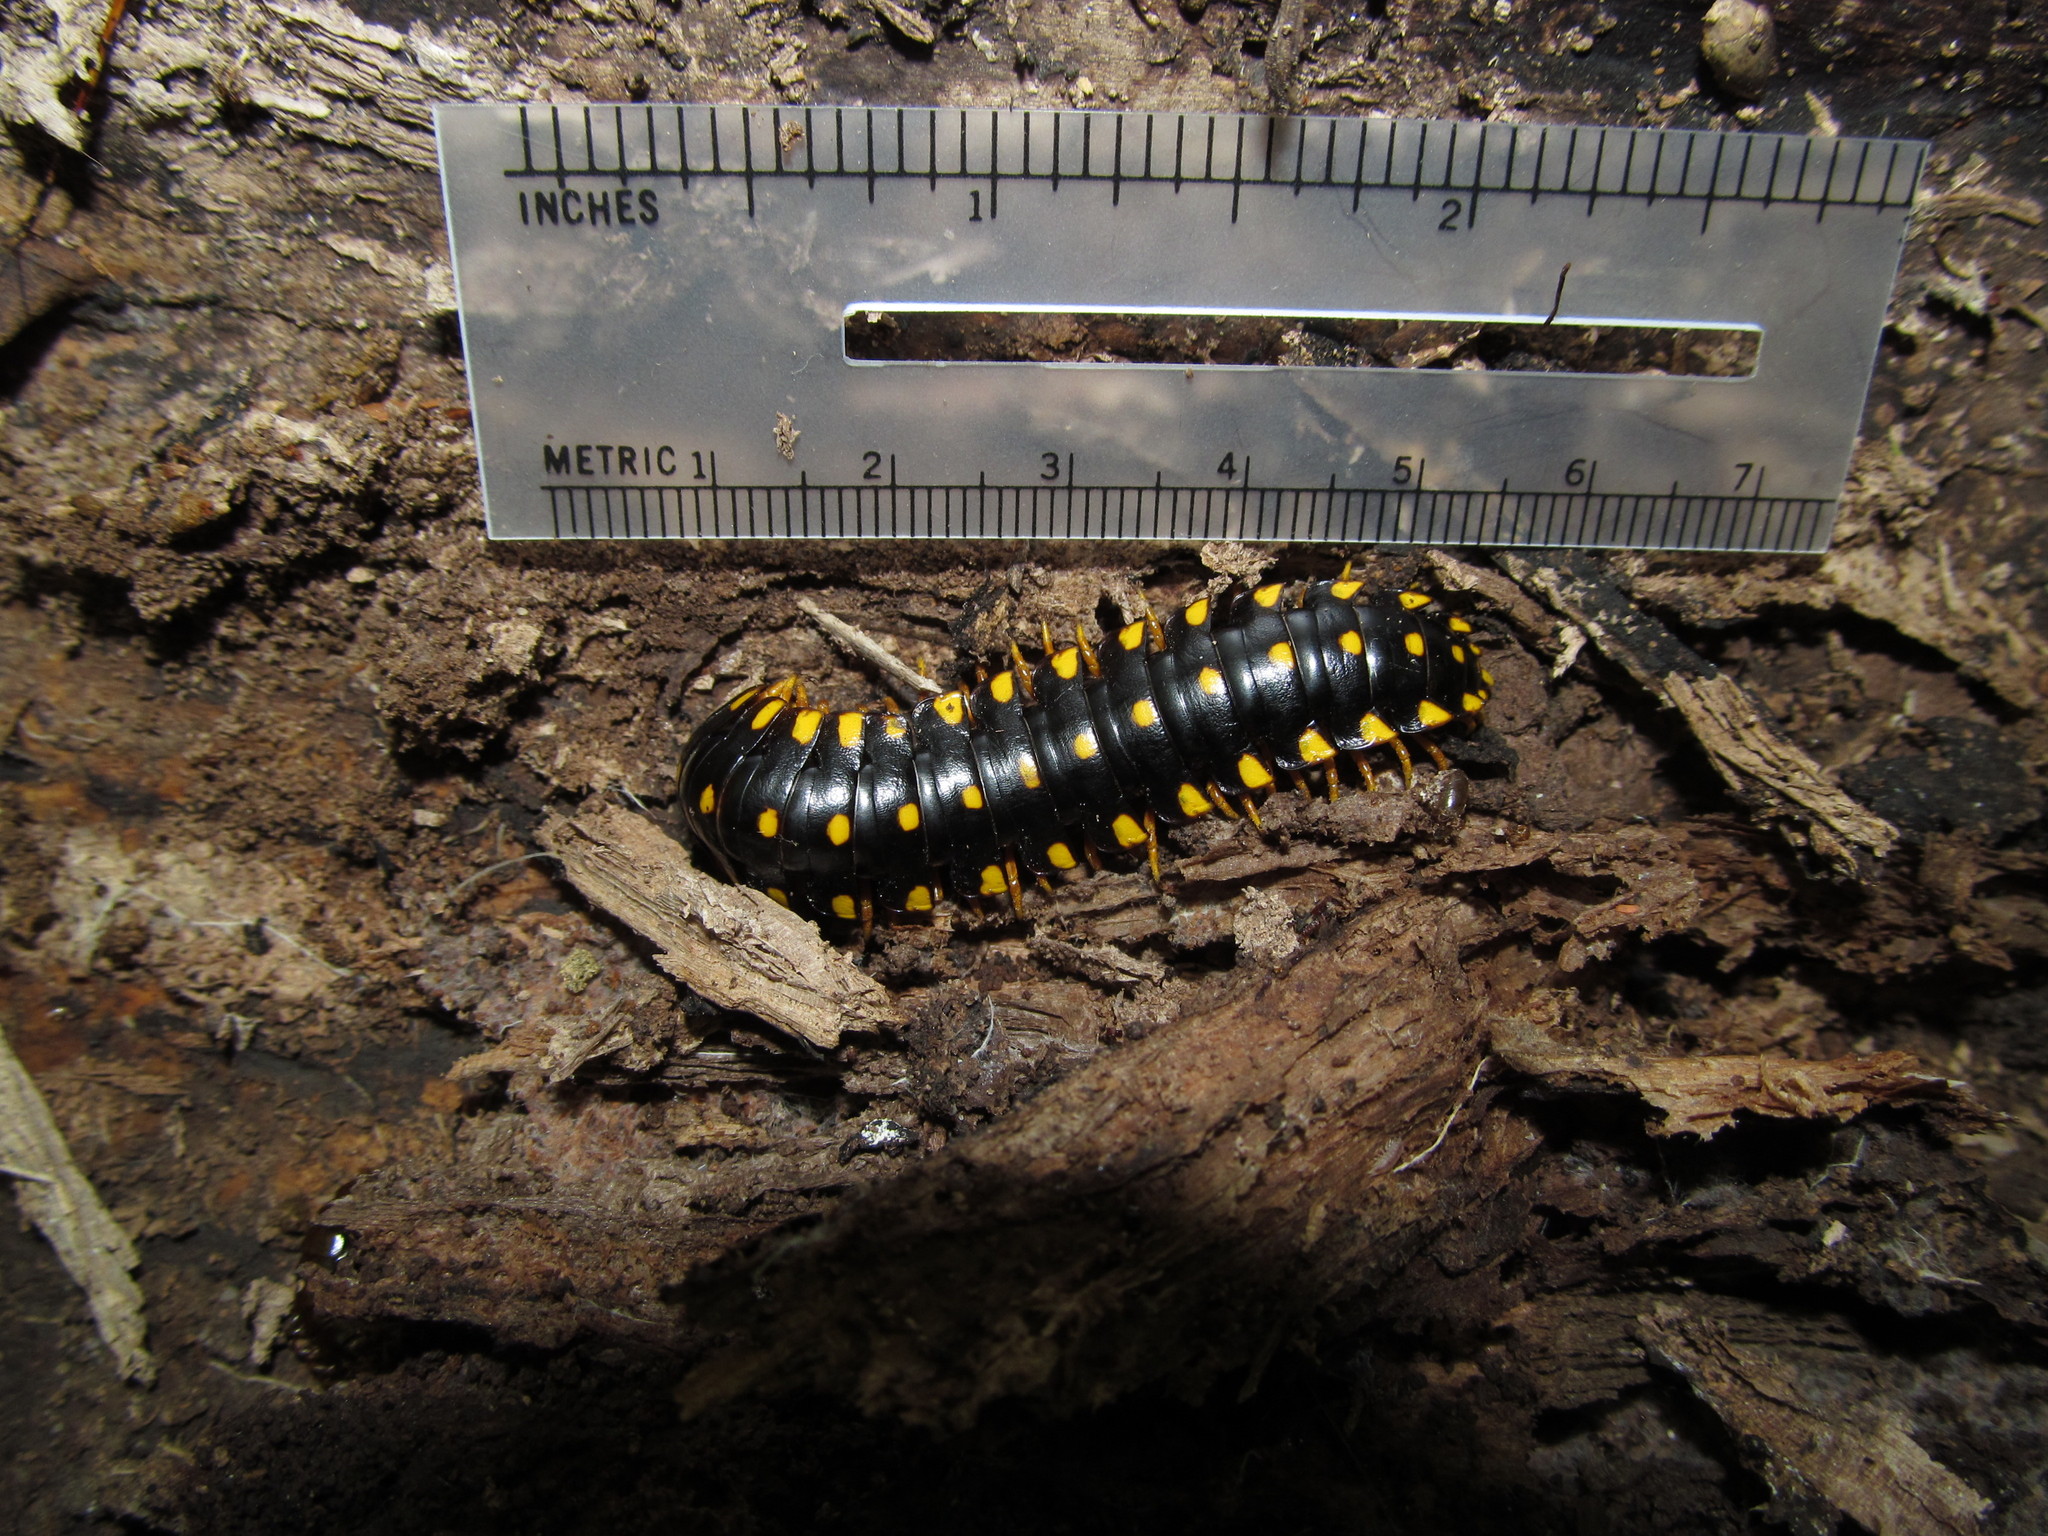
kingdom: Animalia
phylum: Arthropoda
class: Diplopoda
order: Polydesmida
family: Xystodesmidae
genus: Apheloria
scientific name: Apheloria montana
